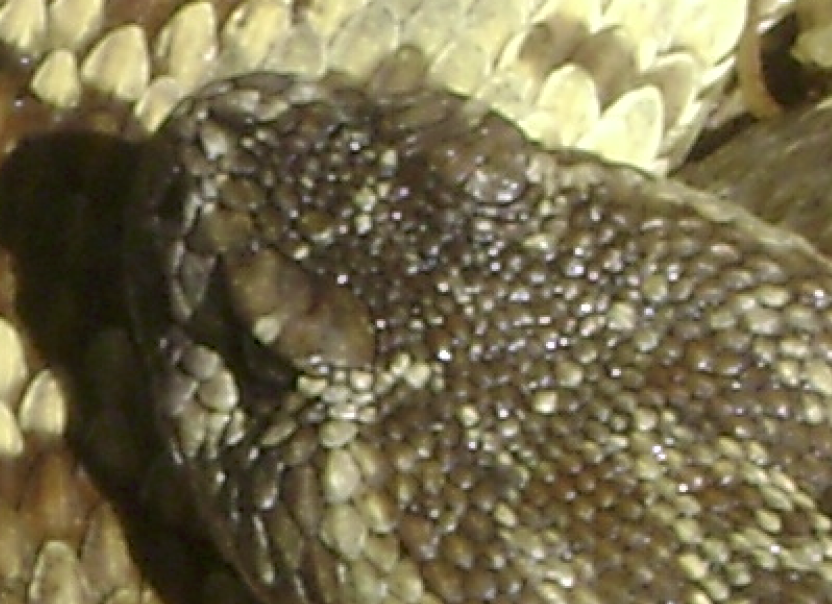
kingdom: Animalia
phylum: Chordata
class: Squamata
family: Viperidae
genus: Crotalus
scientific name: Crotalus oreganus
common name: Abyssus
